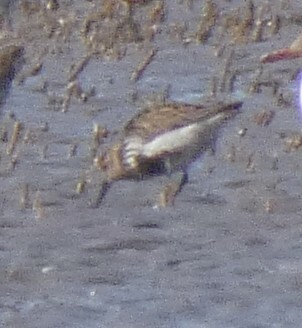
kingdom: Animalia
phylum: Chordata
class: Aves
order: Charadriiformes
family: Scolopacidae
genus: Calidris
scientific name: Calidris alpina
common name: Dunlin
